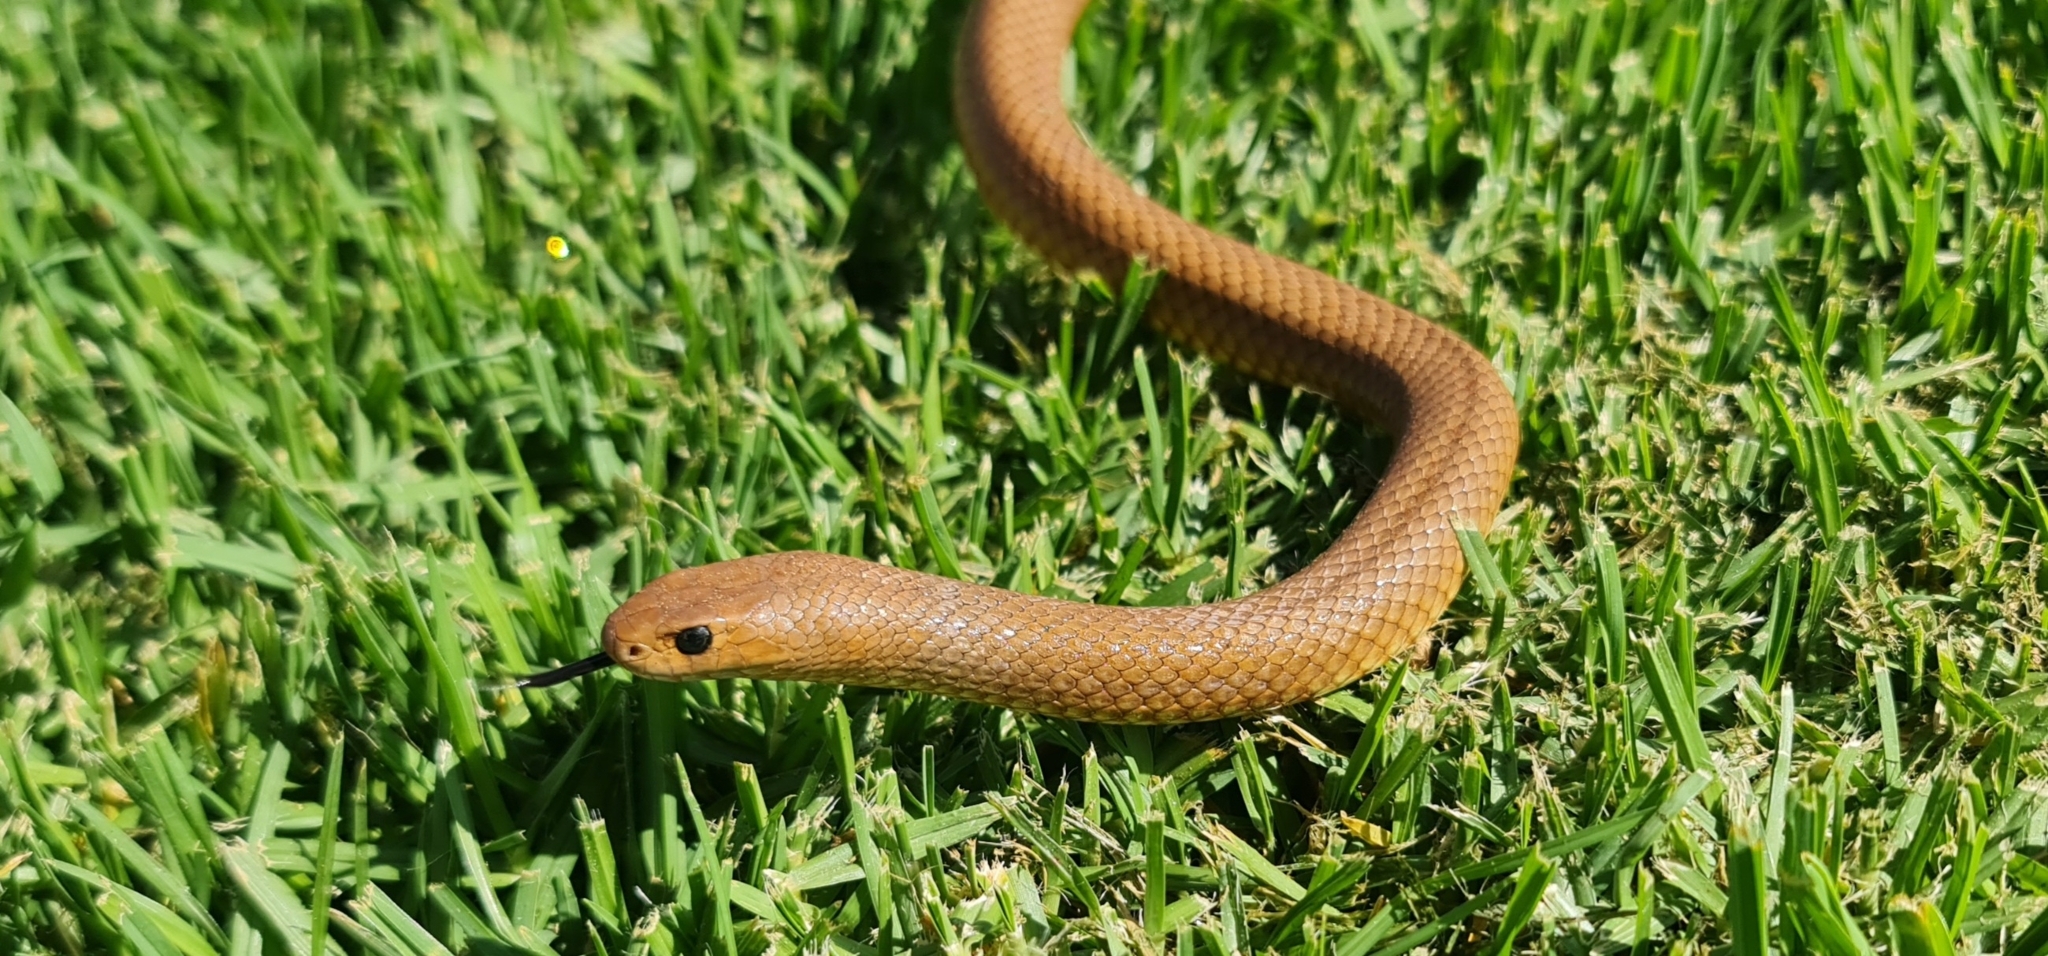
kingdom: Animalia
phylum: Chordata
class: Squamata
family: Elapidae
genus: Pseudonaja
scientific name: Pseudonaja textilis
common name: Eastern brown snake
